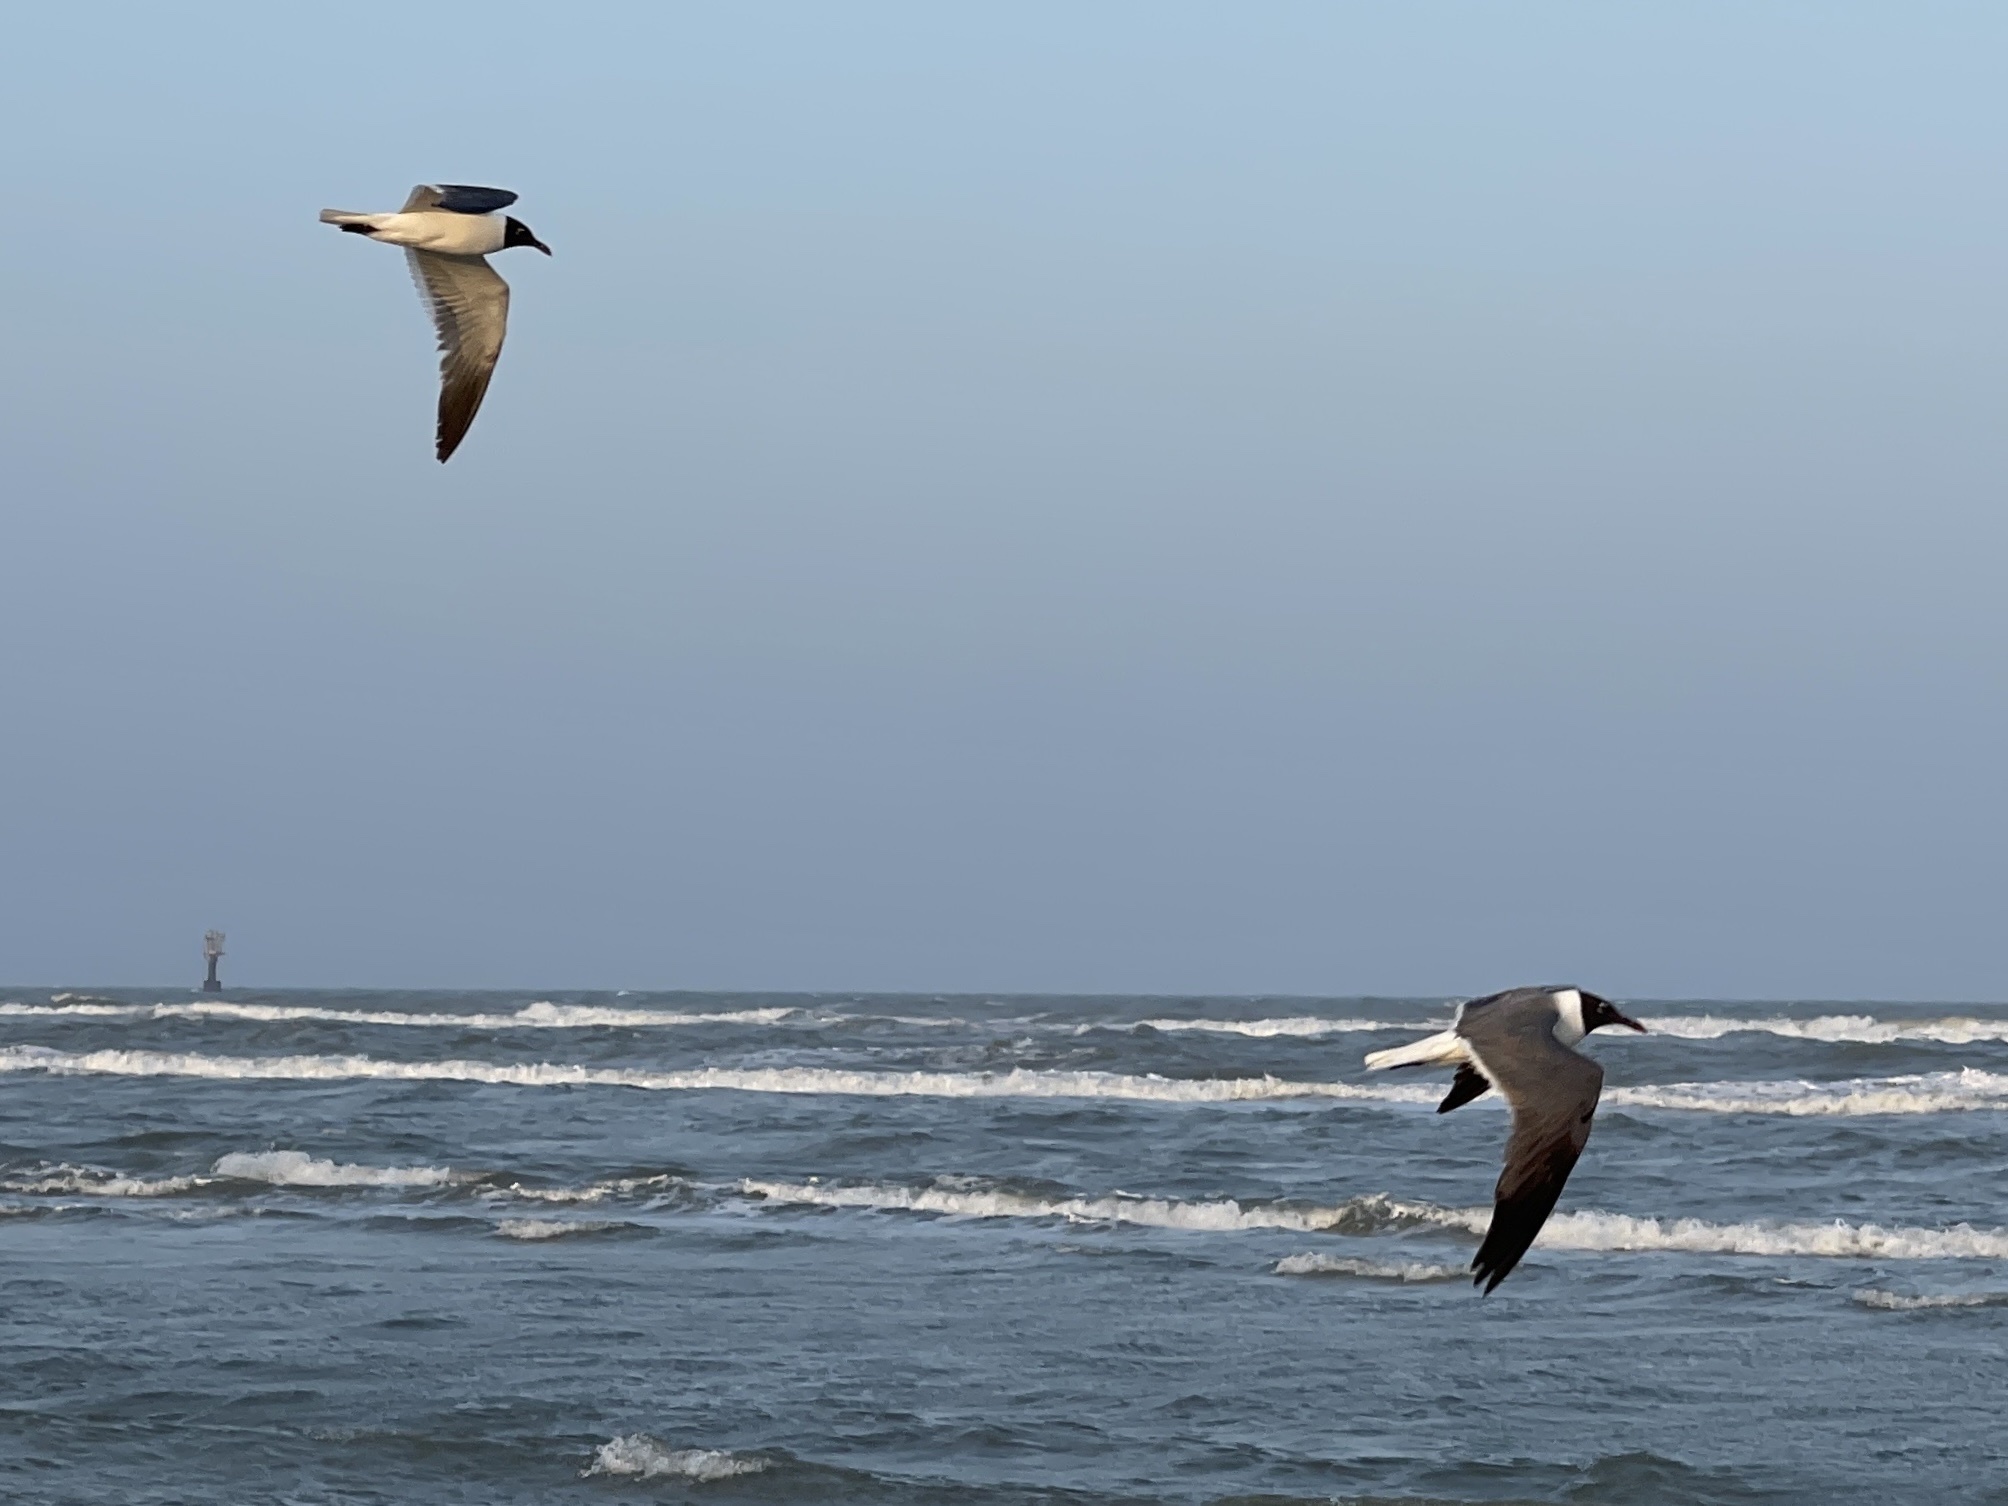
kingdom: Animalia
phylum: Chordata
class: Aves
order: Charadriiformes
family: Laridae
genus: Leucophaeus
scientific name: Leucophaeus atricilla
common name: Laughing gull
